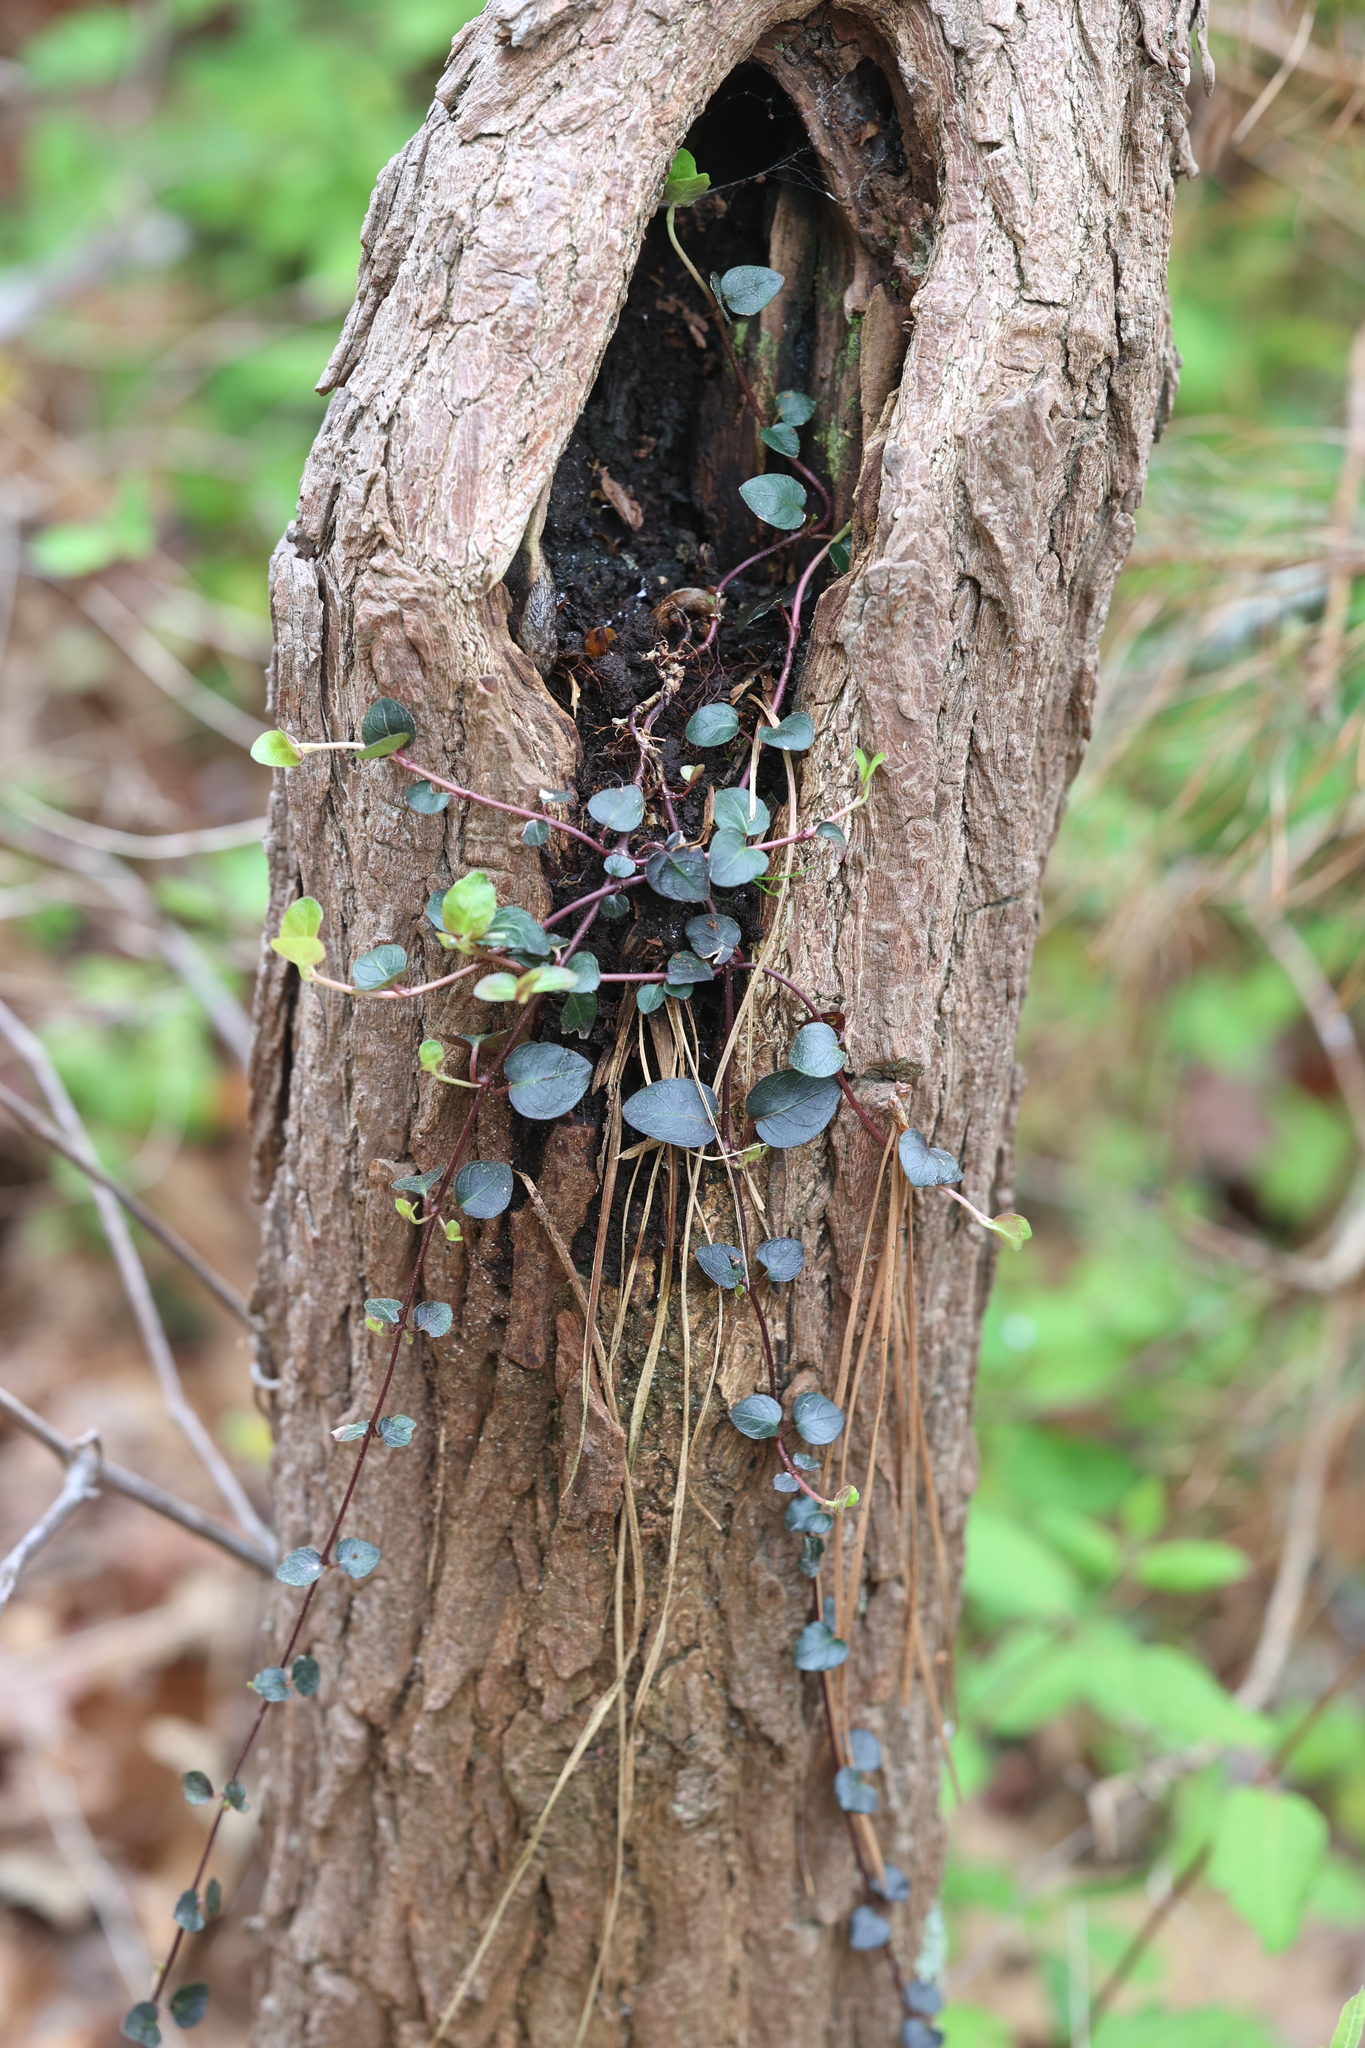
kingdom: Plantae
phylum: Tracheophyta
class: Magnoliopsida
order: Gentianales
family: Rubiaceae
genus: Mitchella
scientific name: Mitchella repens
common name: Partridge-berry
